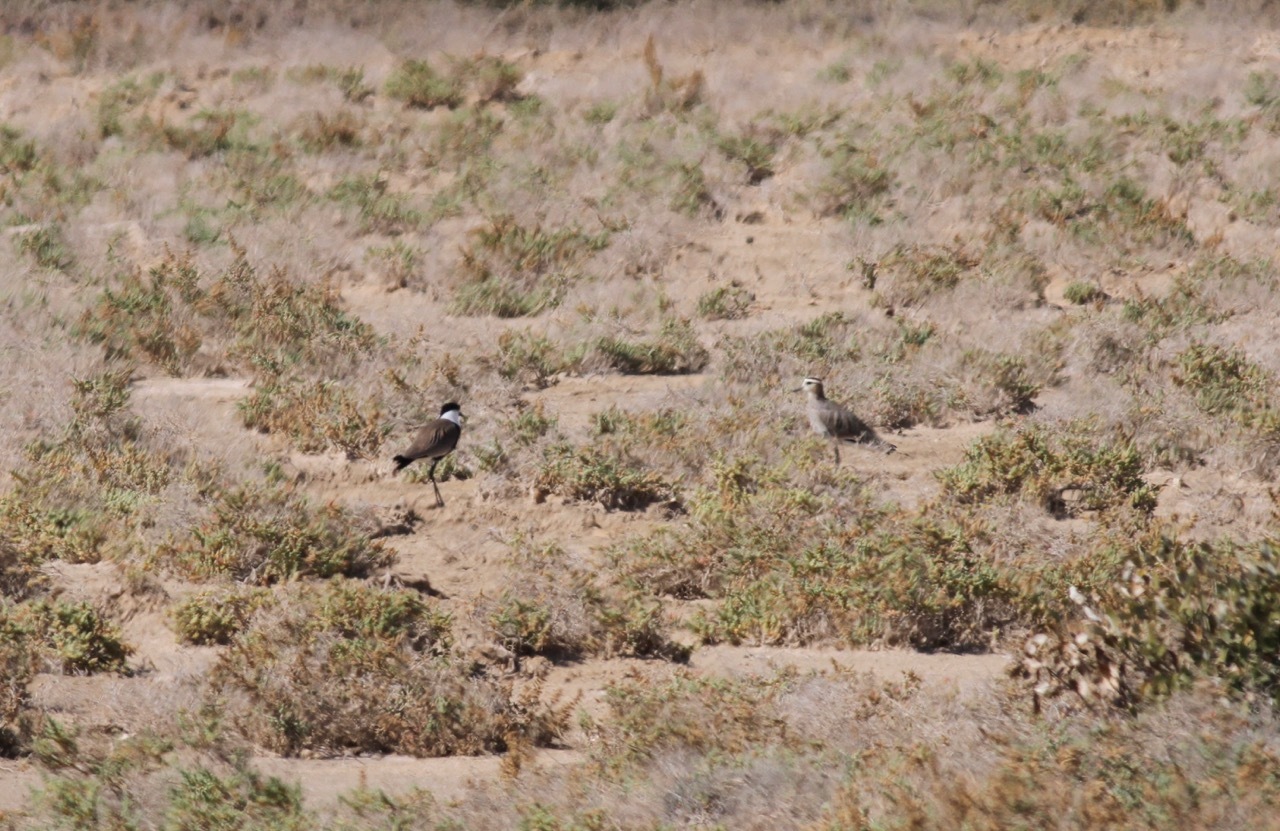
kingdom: Animalia
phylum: Chordata
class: Aves
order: Charadriiformes
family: Charadriidae
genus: Vanellus
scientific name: Vanellus gregarius
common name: Sociable lapwing
